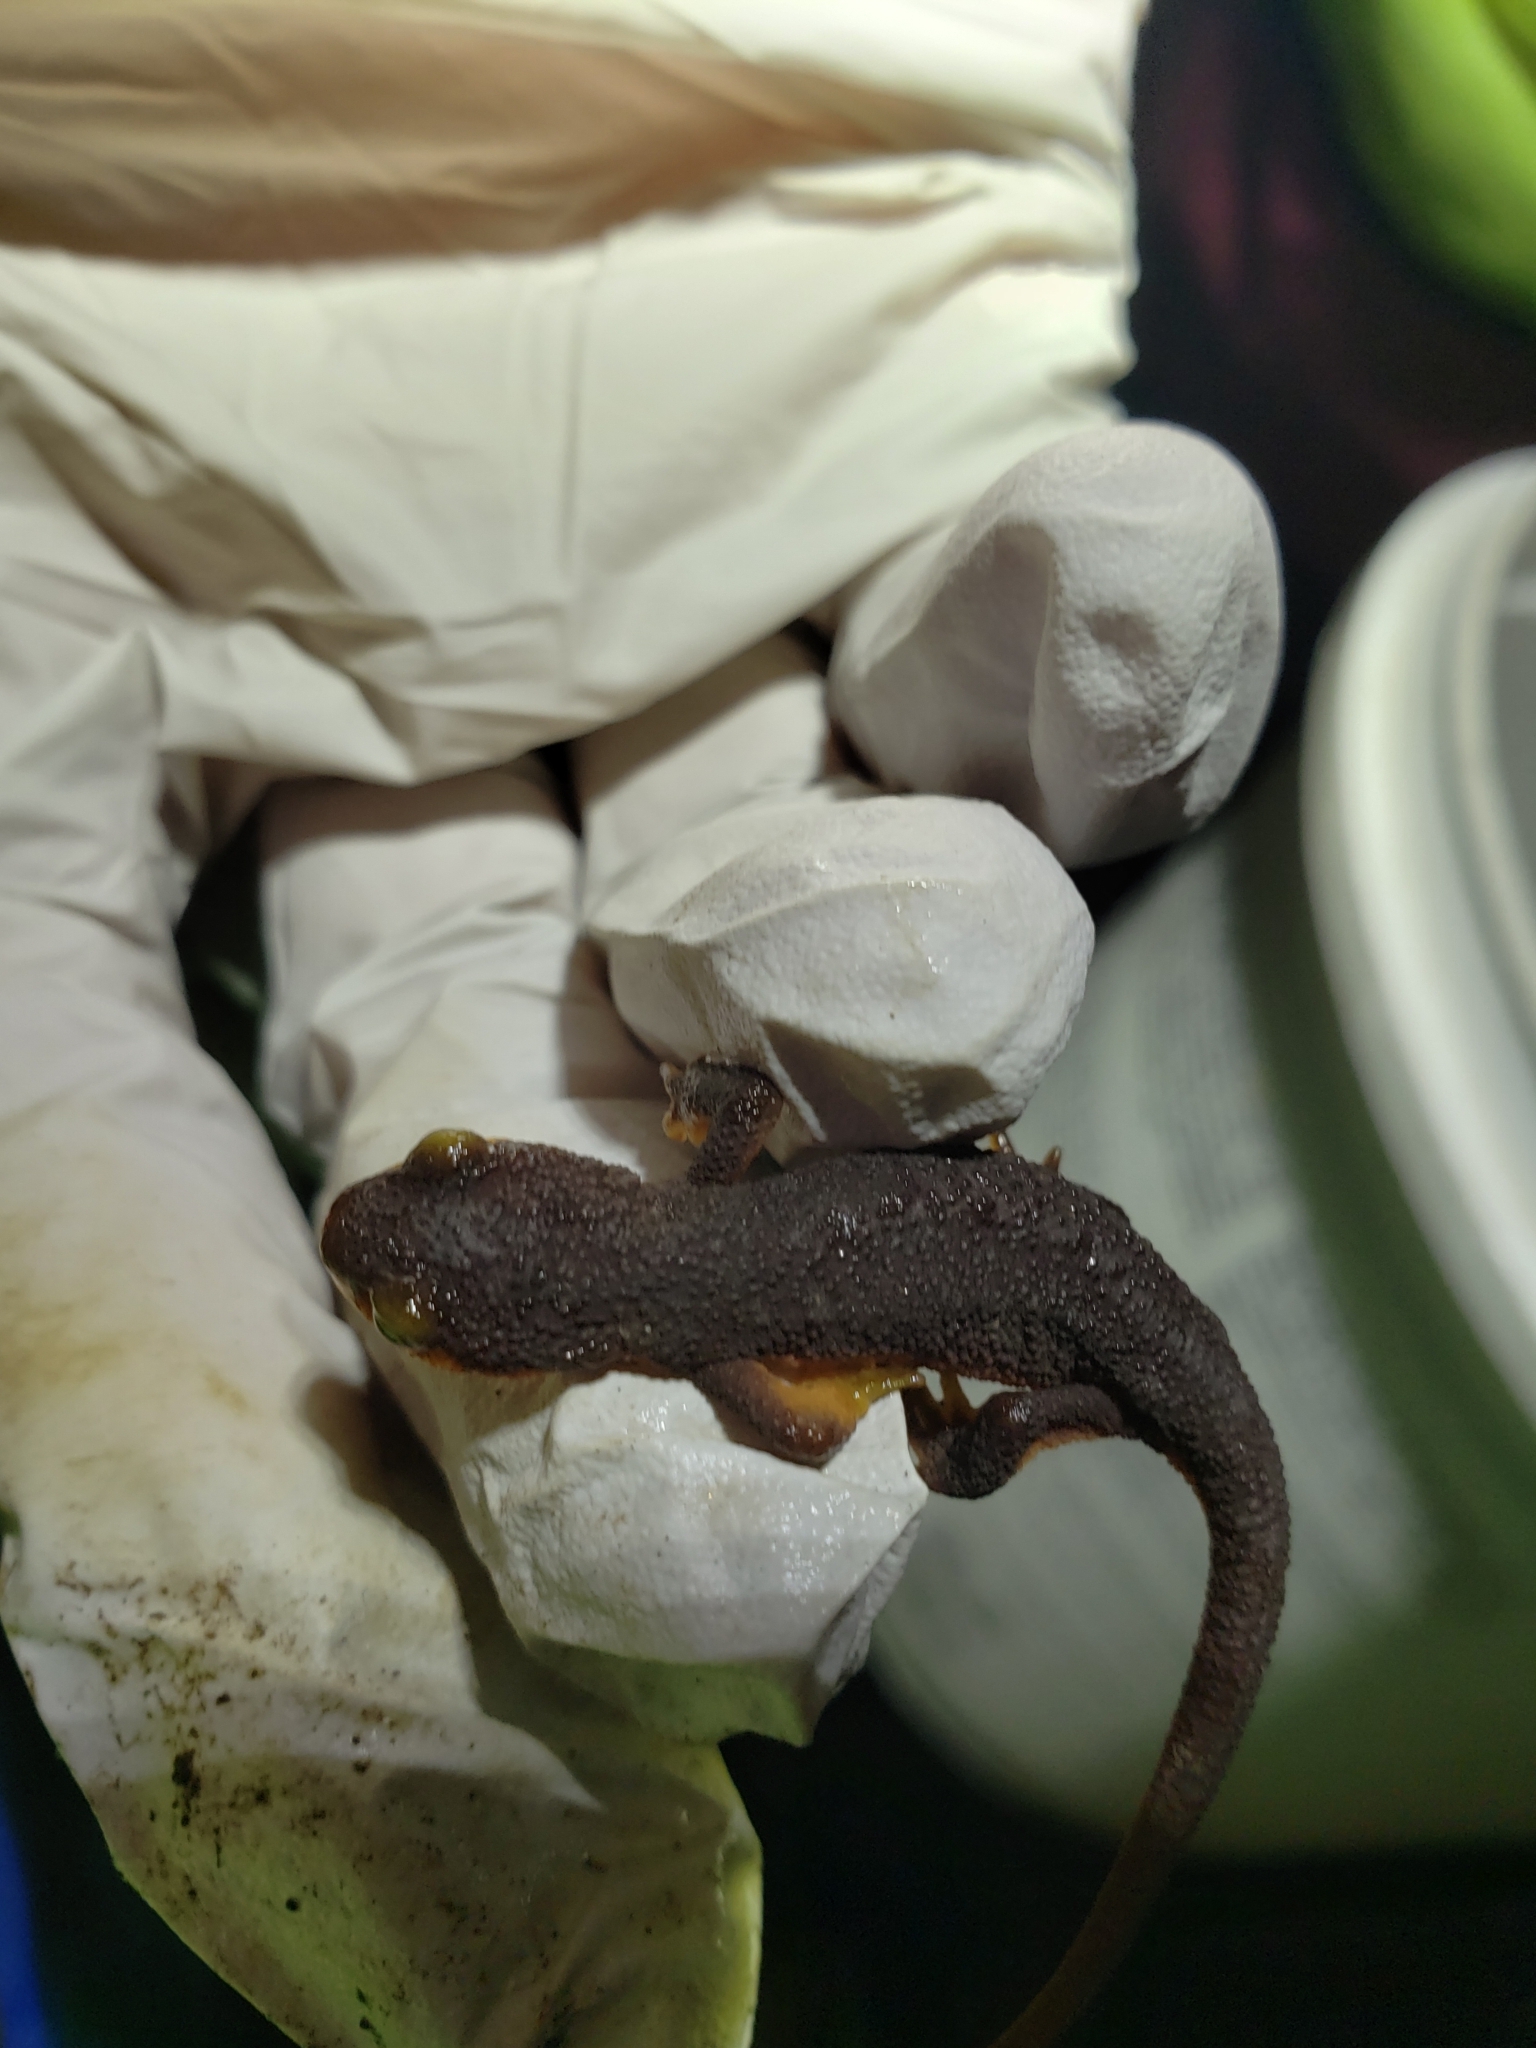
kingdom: Animalia
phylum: Chordata
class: Amphibia
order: Caudata
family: Salamandridae
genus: Taricha
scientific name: Taricha torosa
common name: California newt
